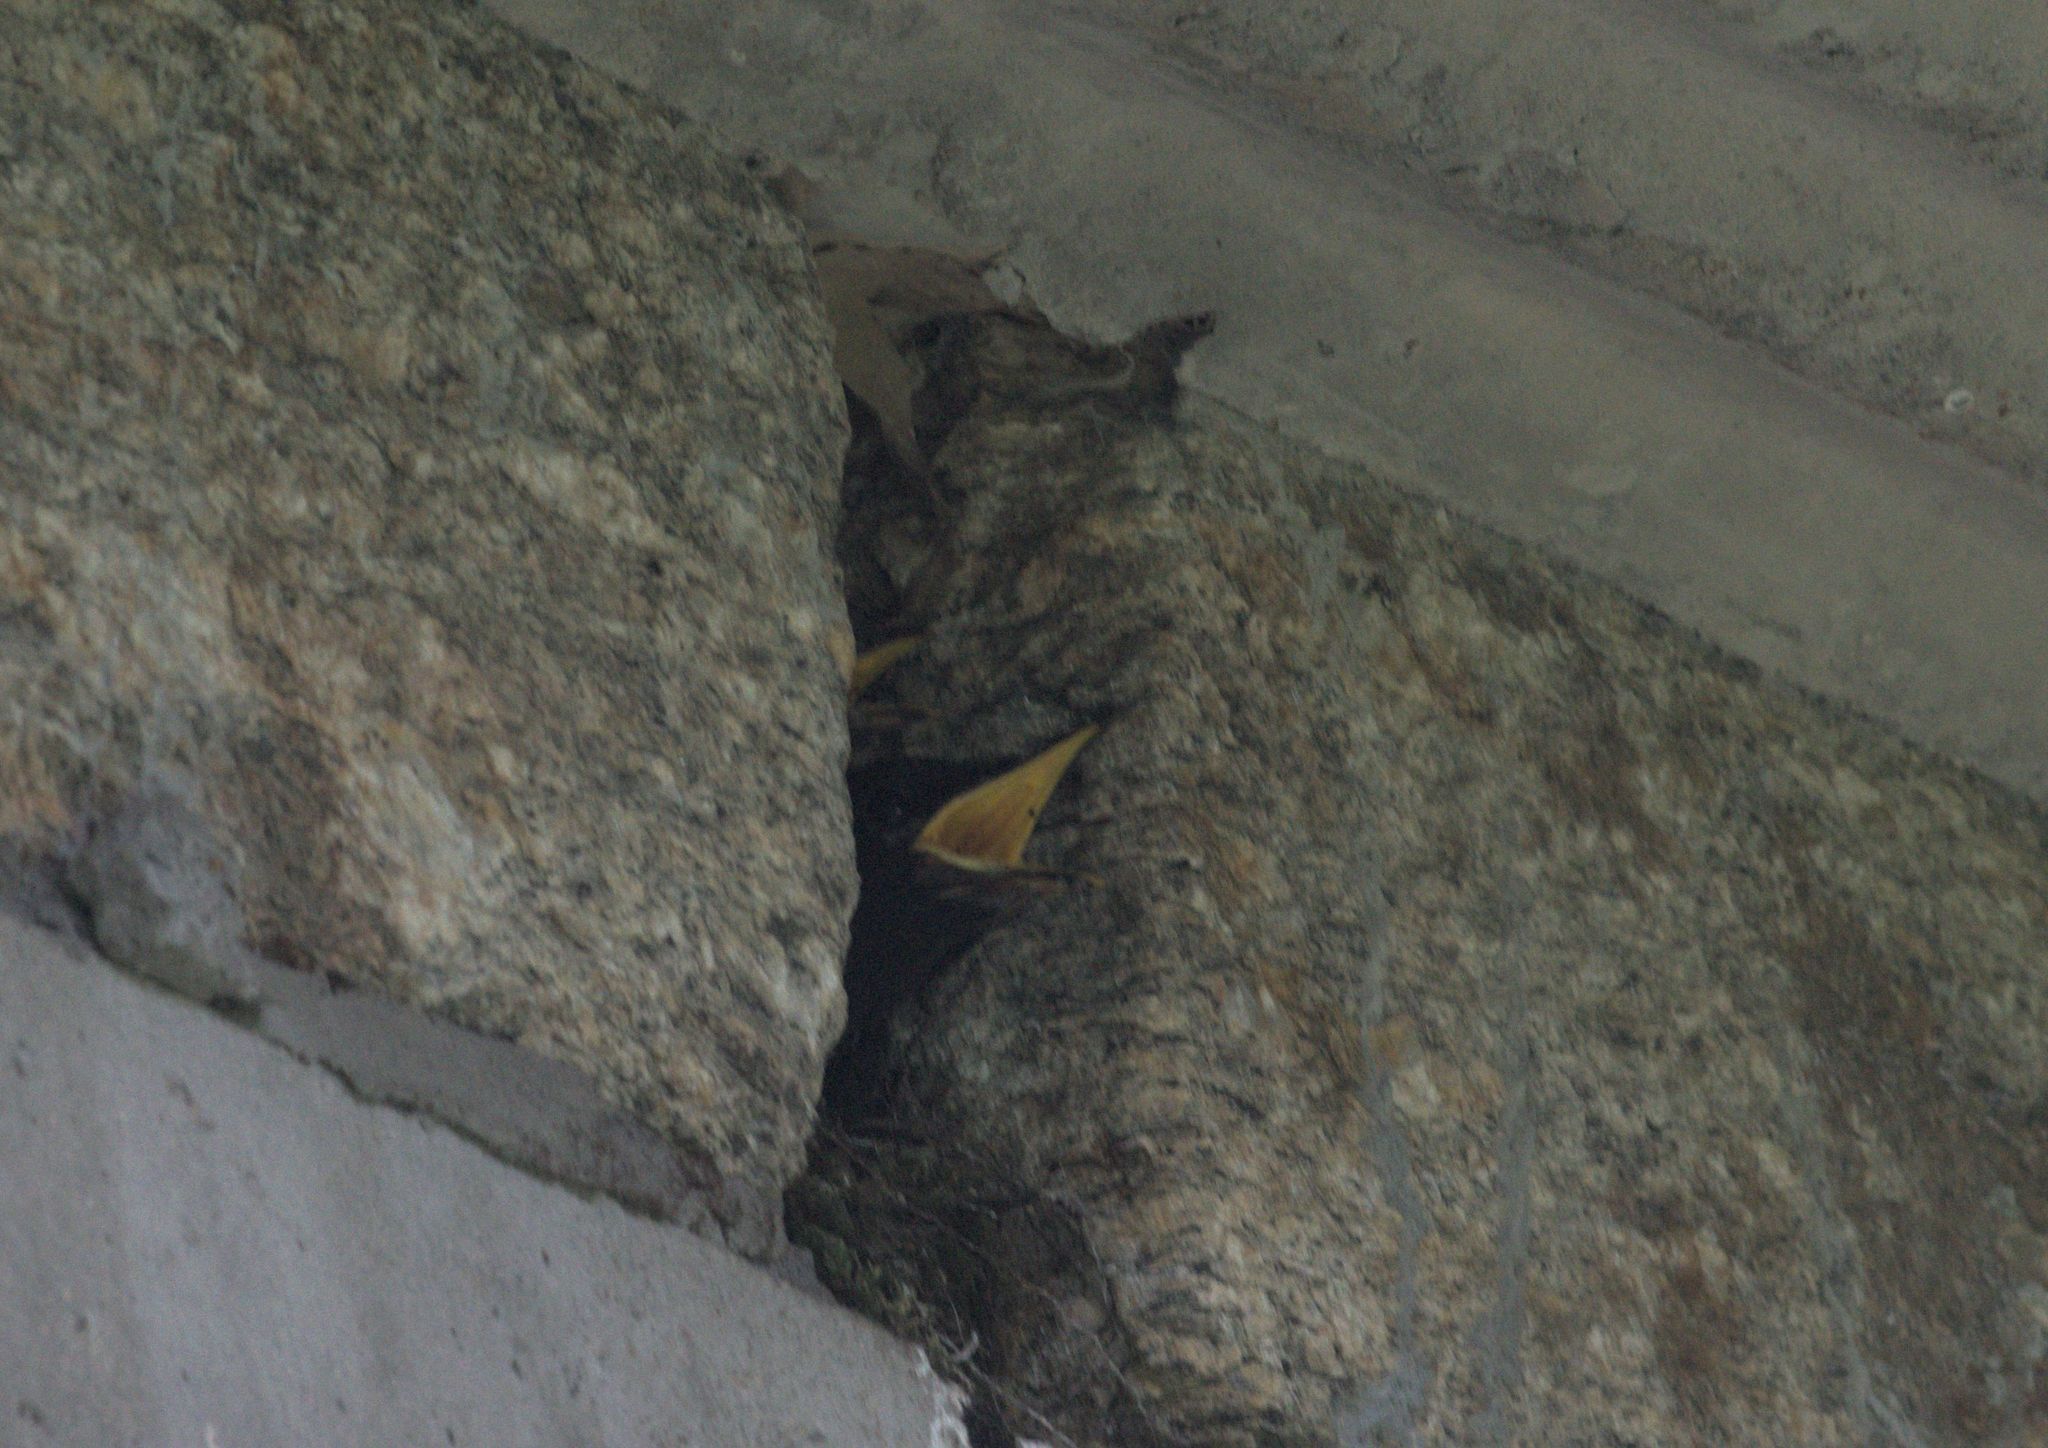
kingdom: Animalia
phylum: Chordata
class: Aves
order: Passeriformes
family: Muscicapidae
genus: Myophonus
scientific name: Myophonus caeruleus
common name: Blue whistling-thrush
